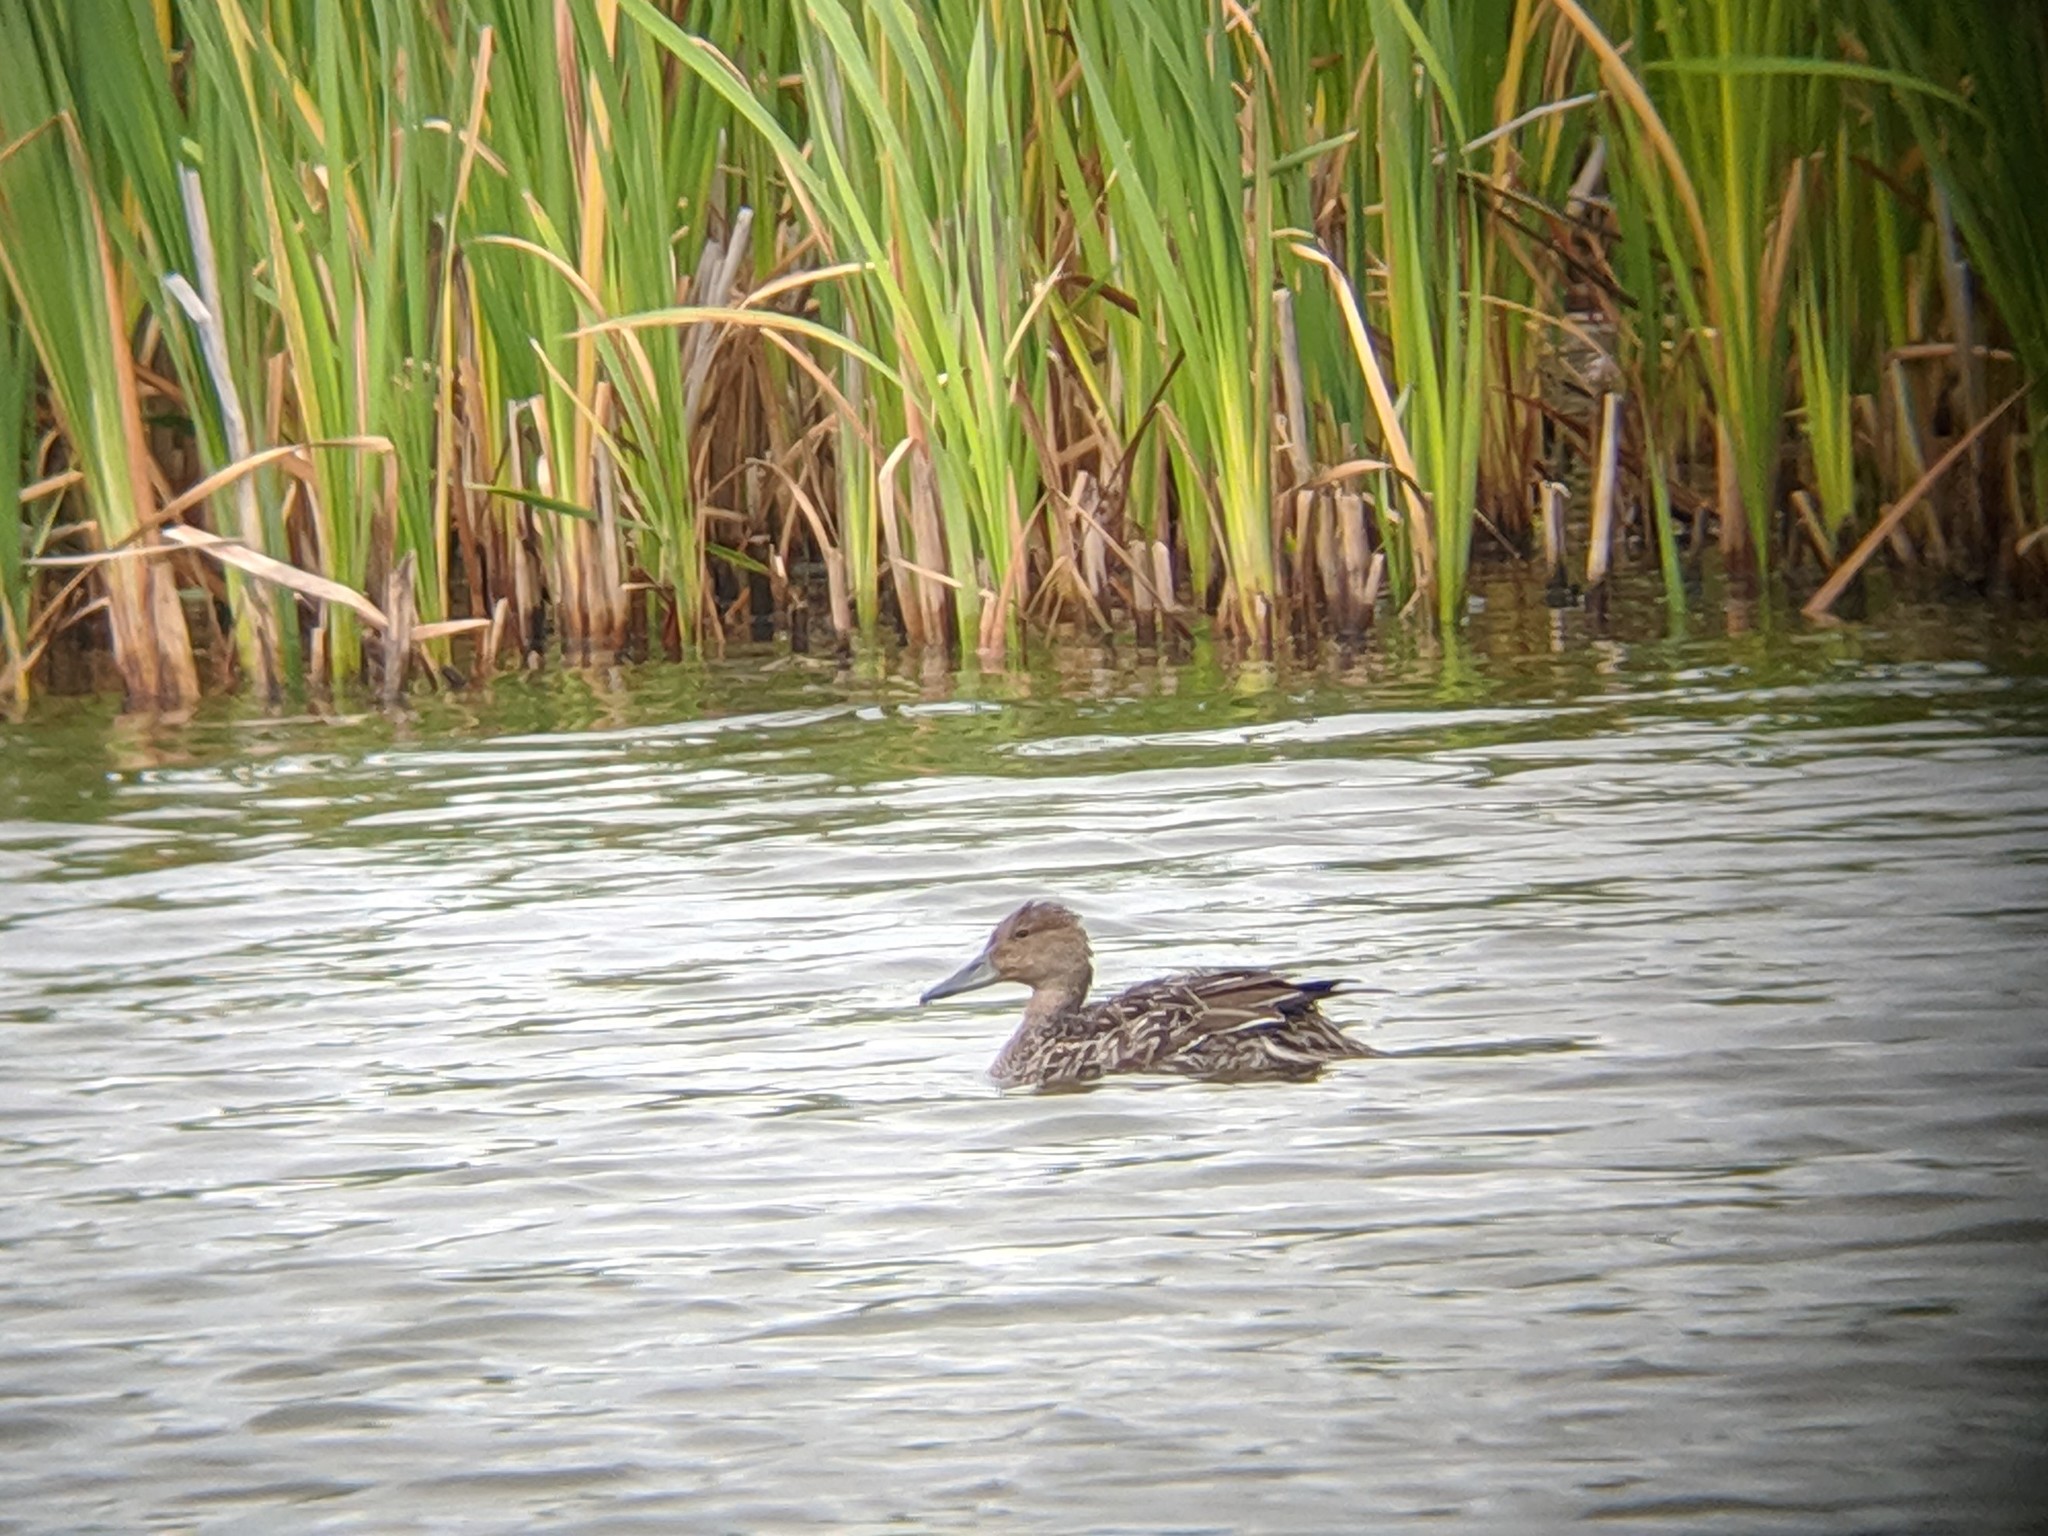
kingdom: Animalia
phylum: Chordata
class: Aves
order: Anseriformes
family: Anatidae
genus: Anas
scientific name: Anas crecca
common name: Eurasian teal
